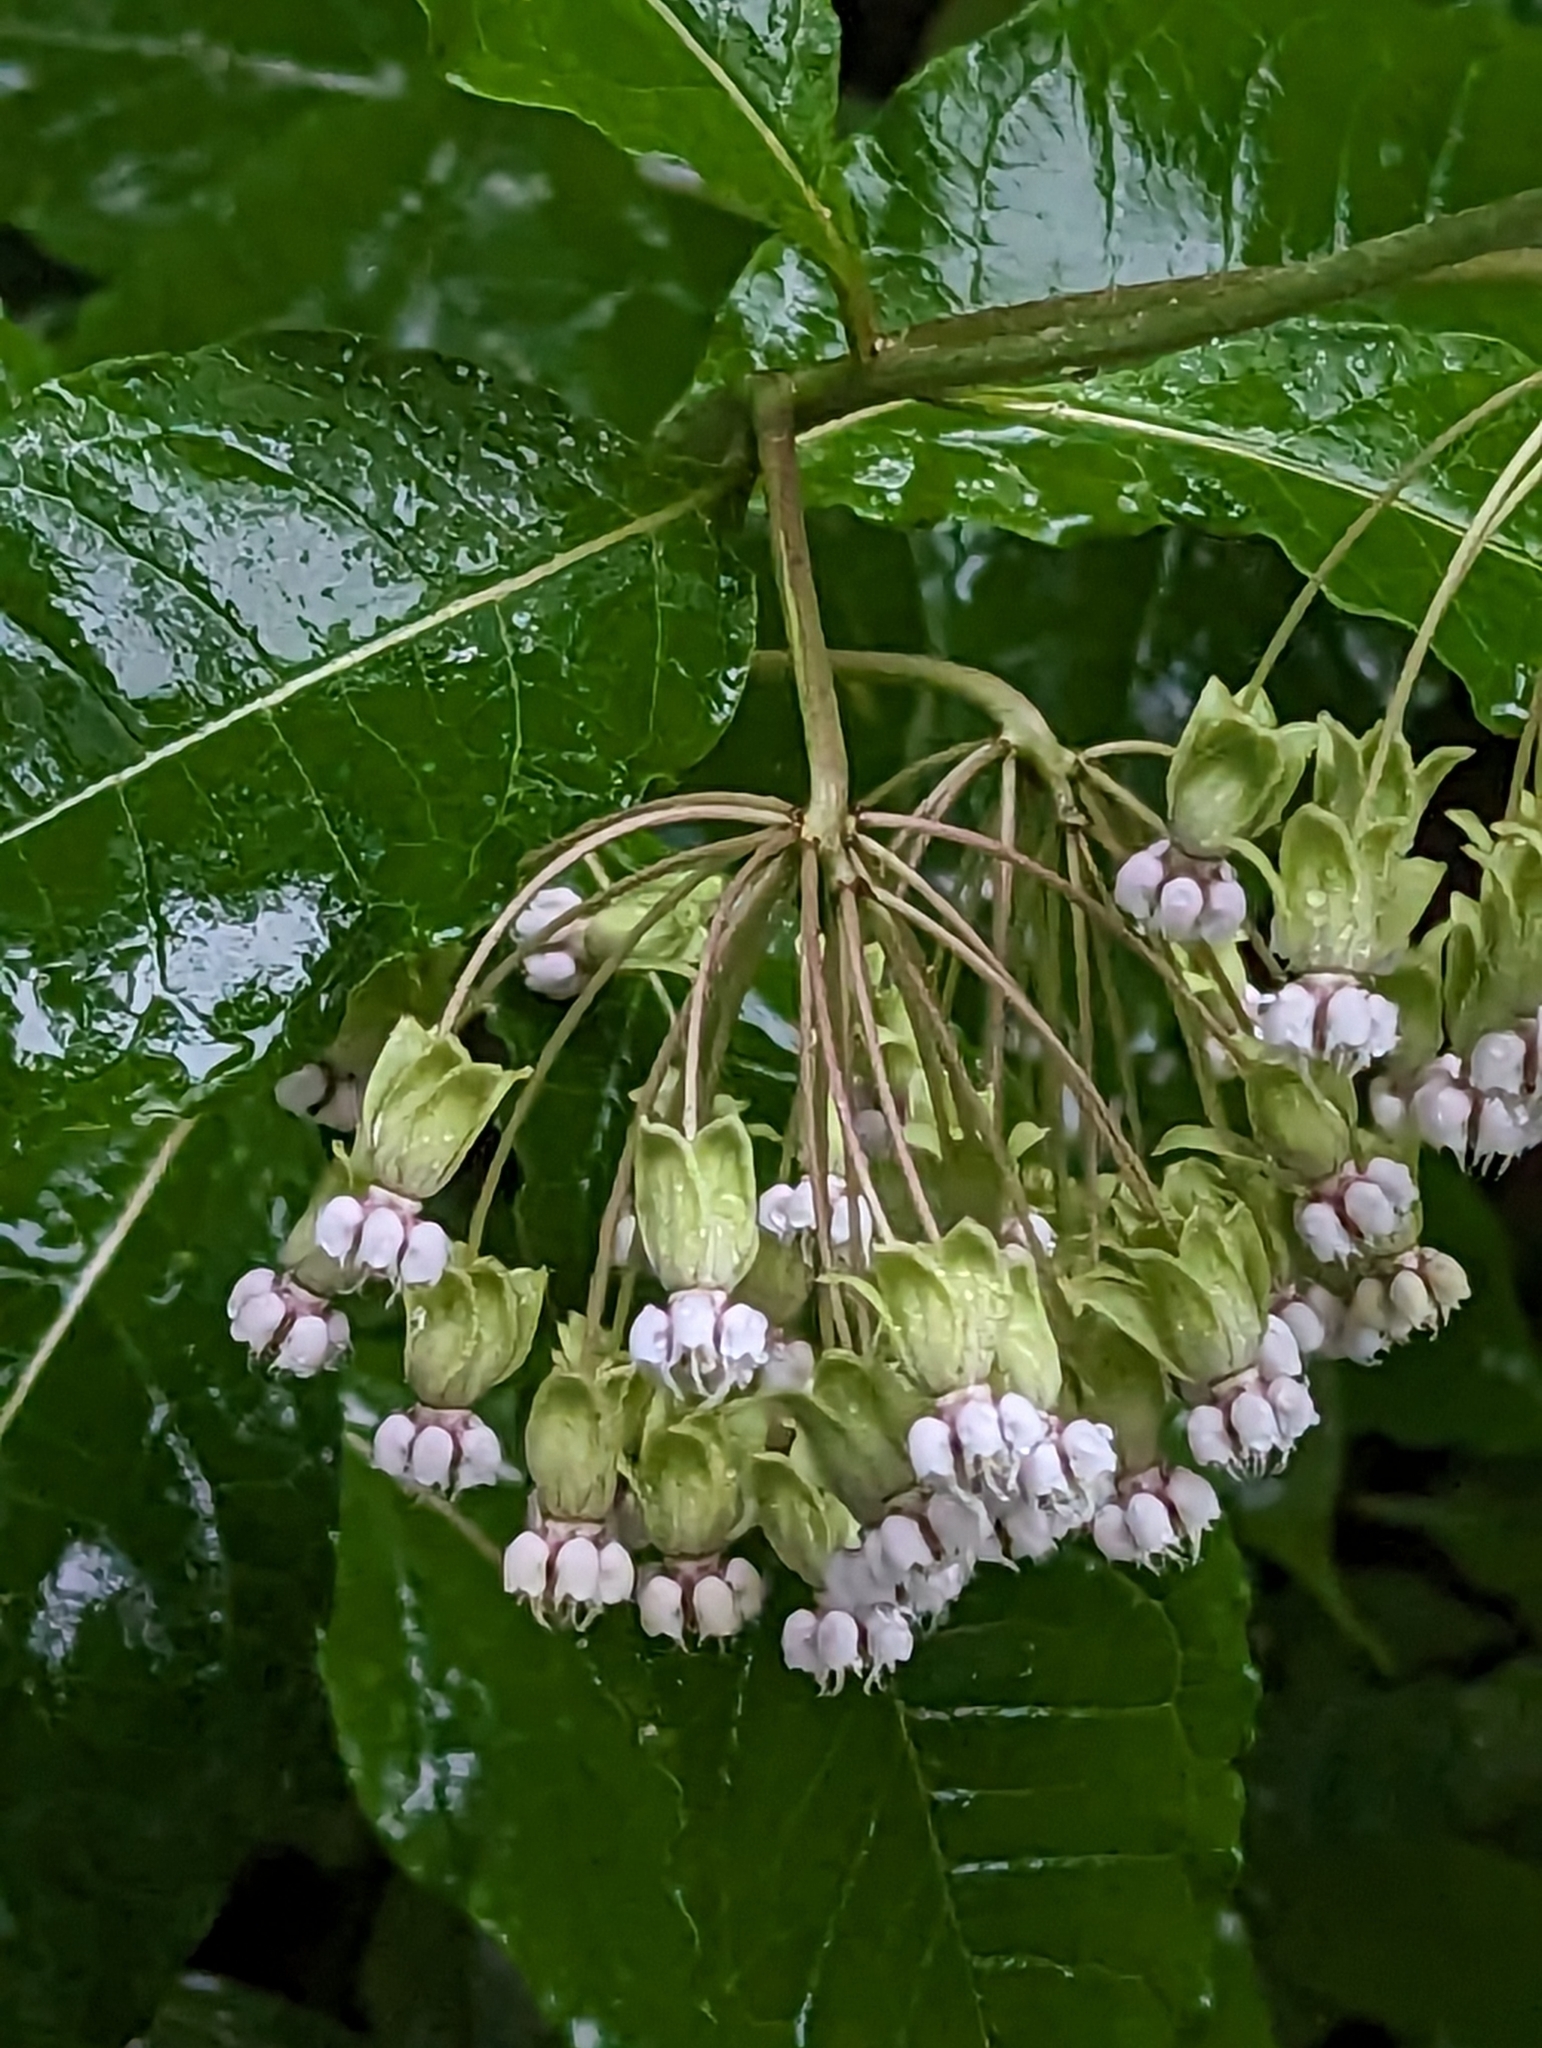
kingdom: Plantae
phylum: Tracheophyta
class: Magnoliopsida
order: Gentianales
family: Apocynaceae
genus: Asclepias
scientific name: Asclepias exaltata
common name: Poke milkweed
